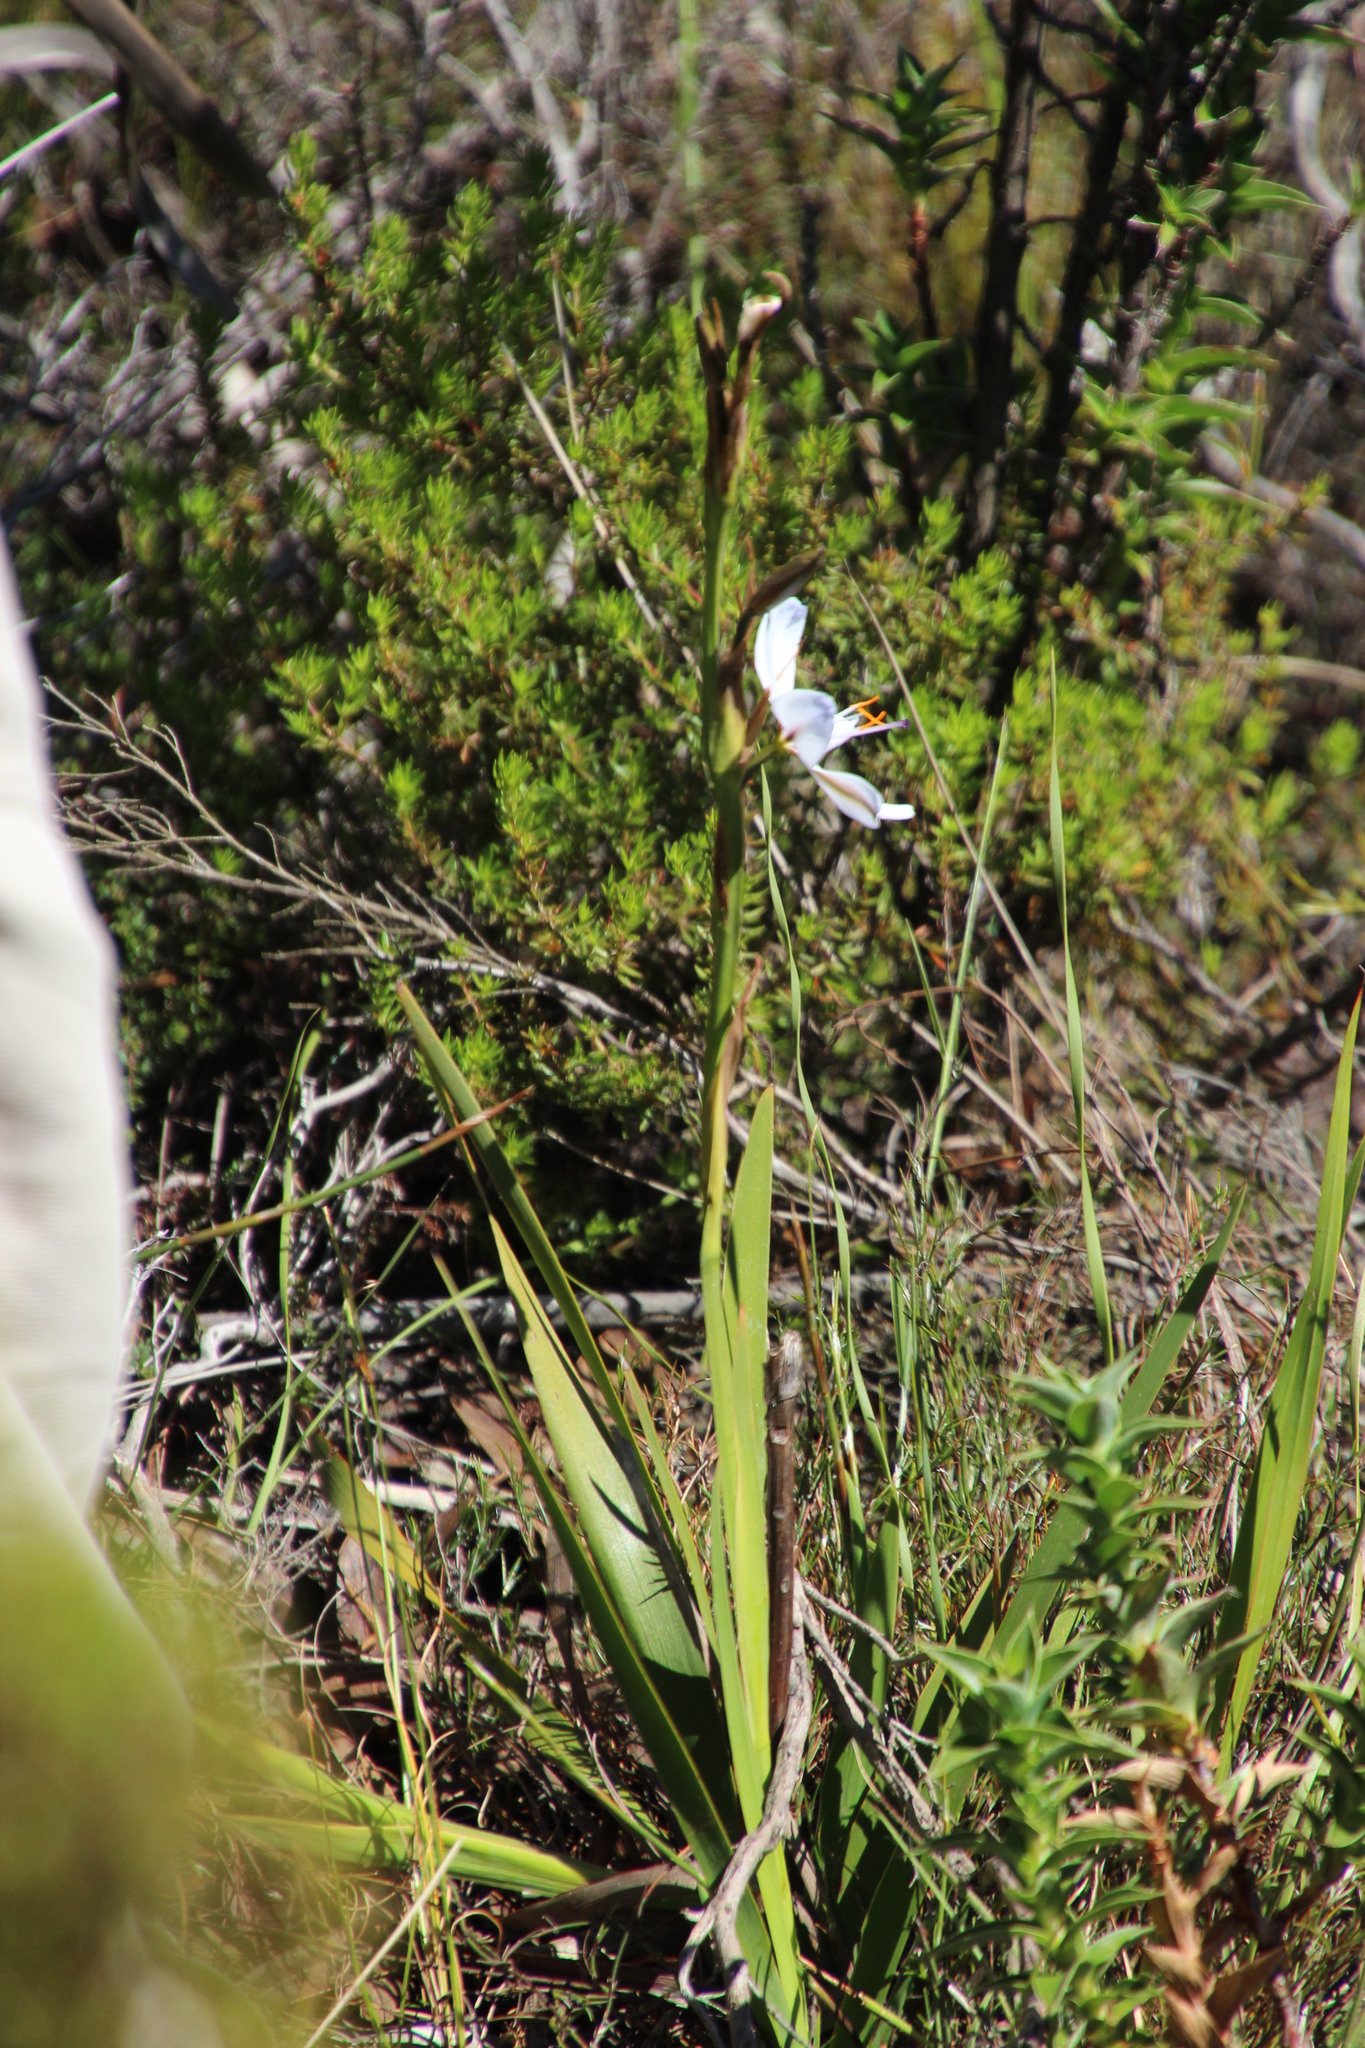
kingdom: Plantae
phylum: Tracheophyta
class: Liliopsida
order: Asparagales
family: Iridaceae
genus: Aristea
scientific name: Aristea spiralis
